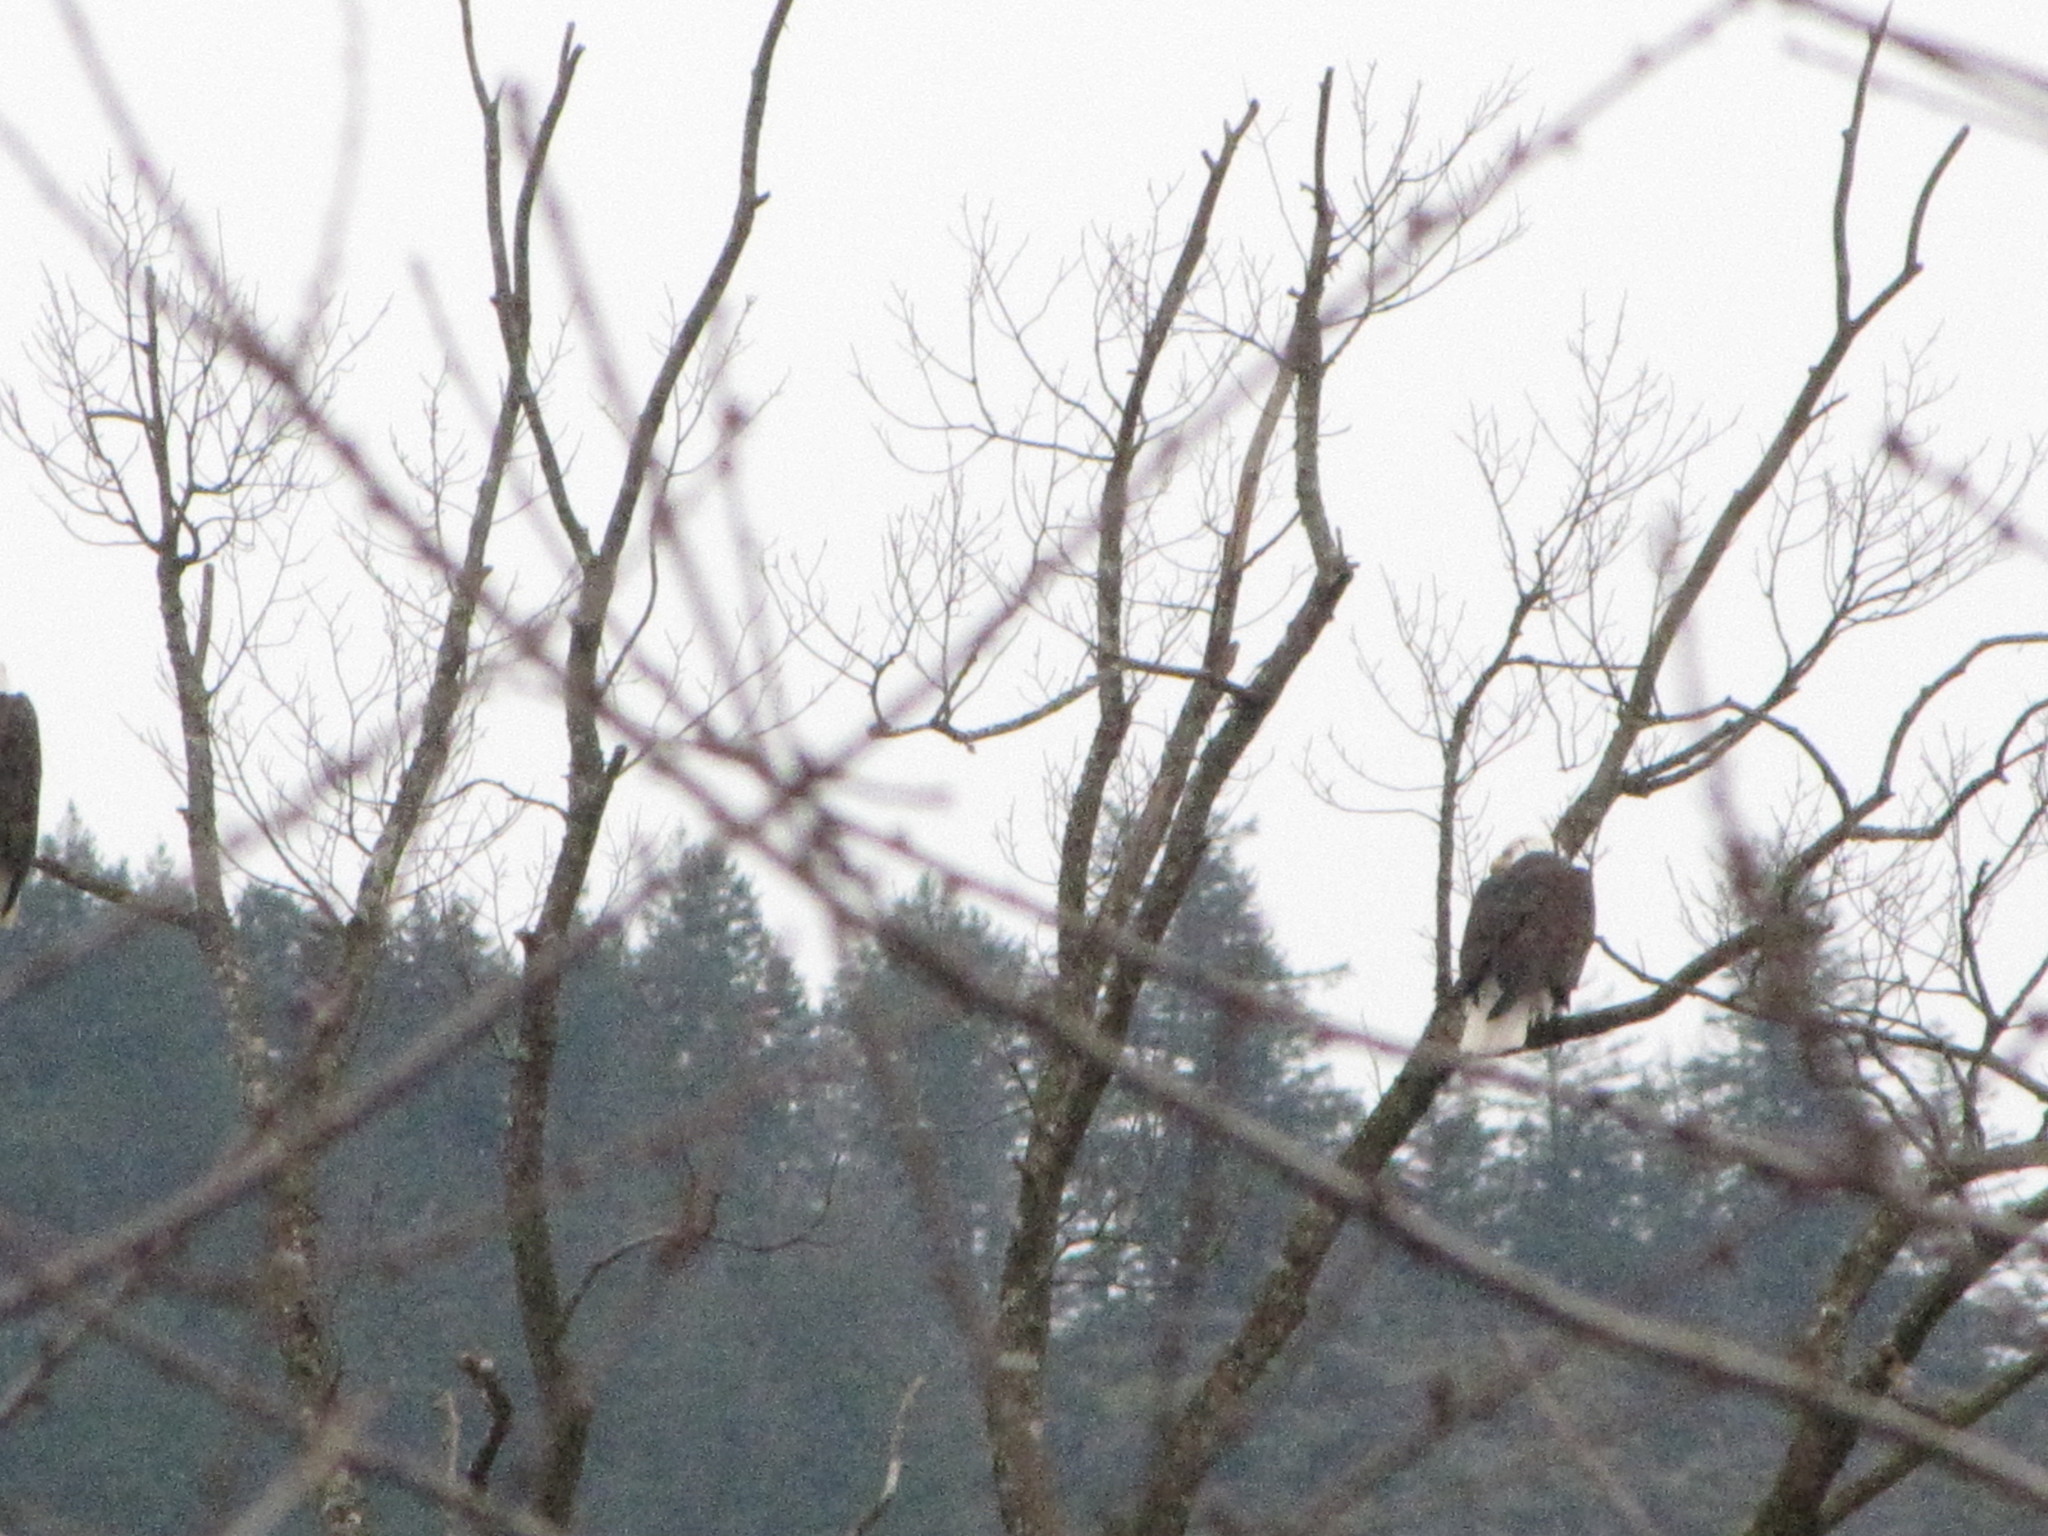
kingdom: Animalia
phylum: Chordata
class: Aves
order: Accipitriformes
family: Accipitridae
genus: Haliaeetus
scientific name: Haliaeetus leucocephalus
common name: Bald eagle
